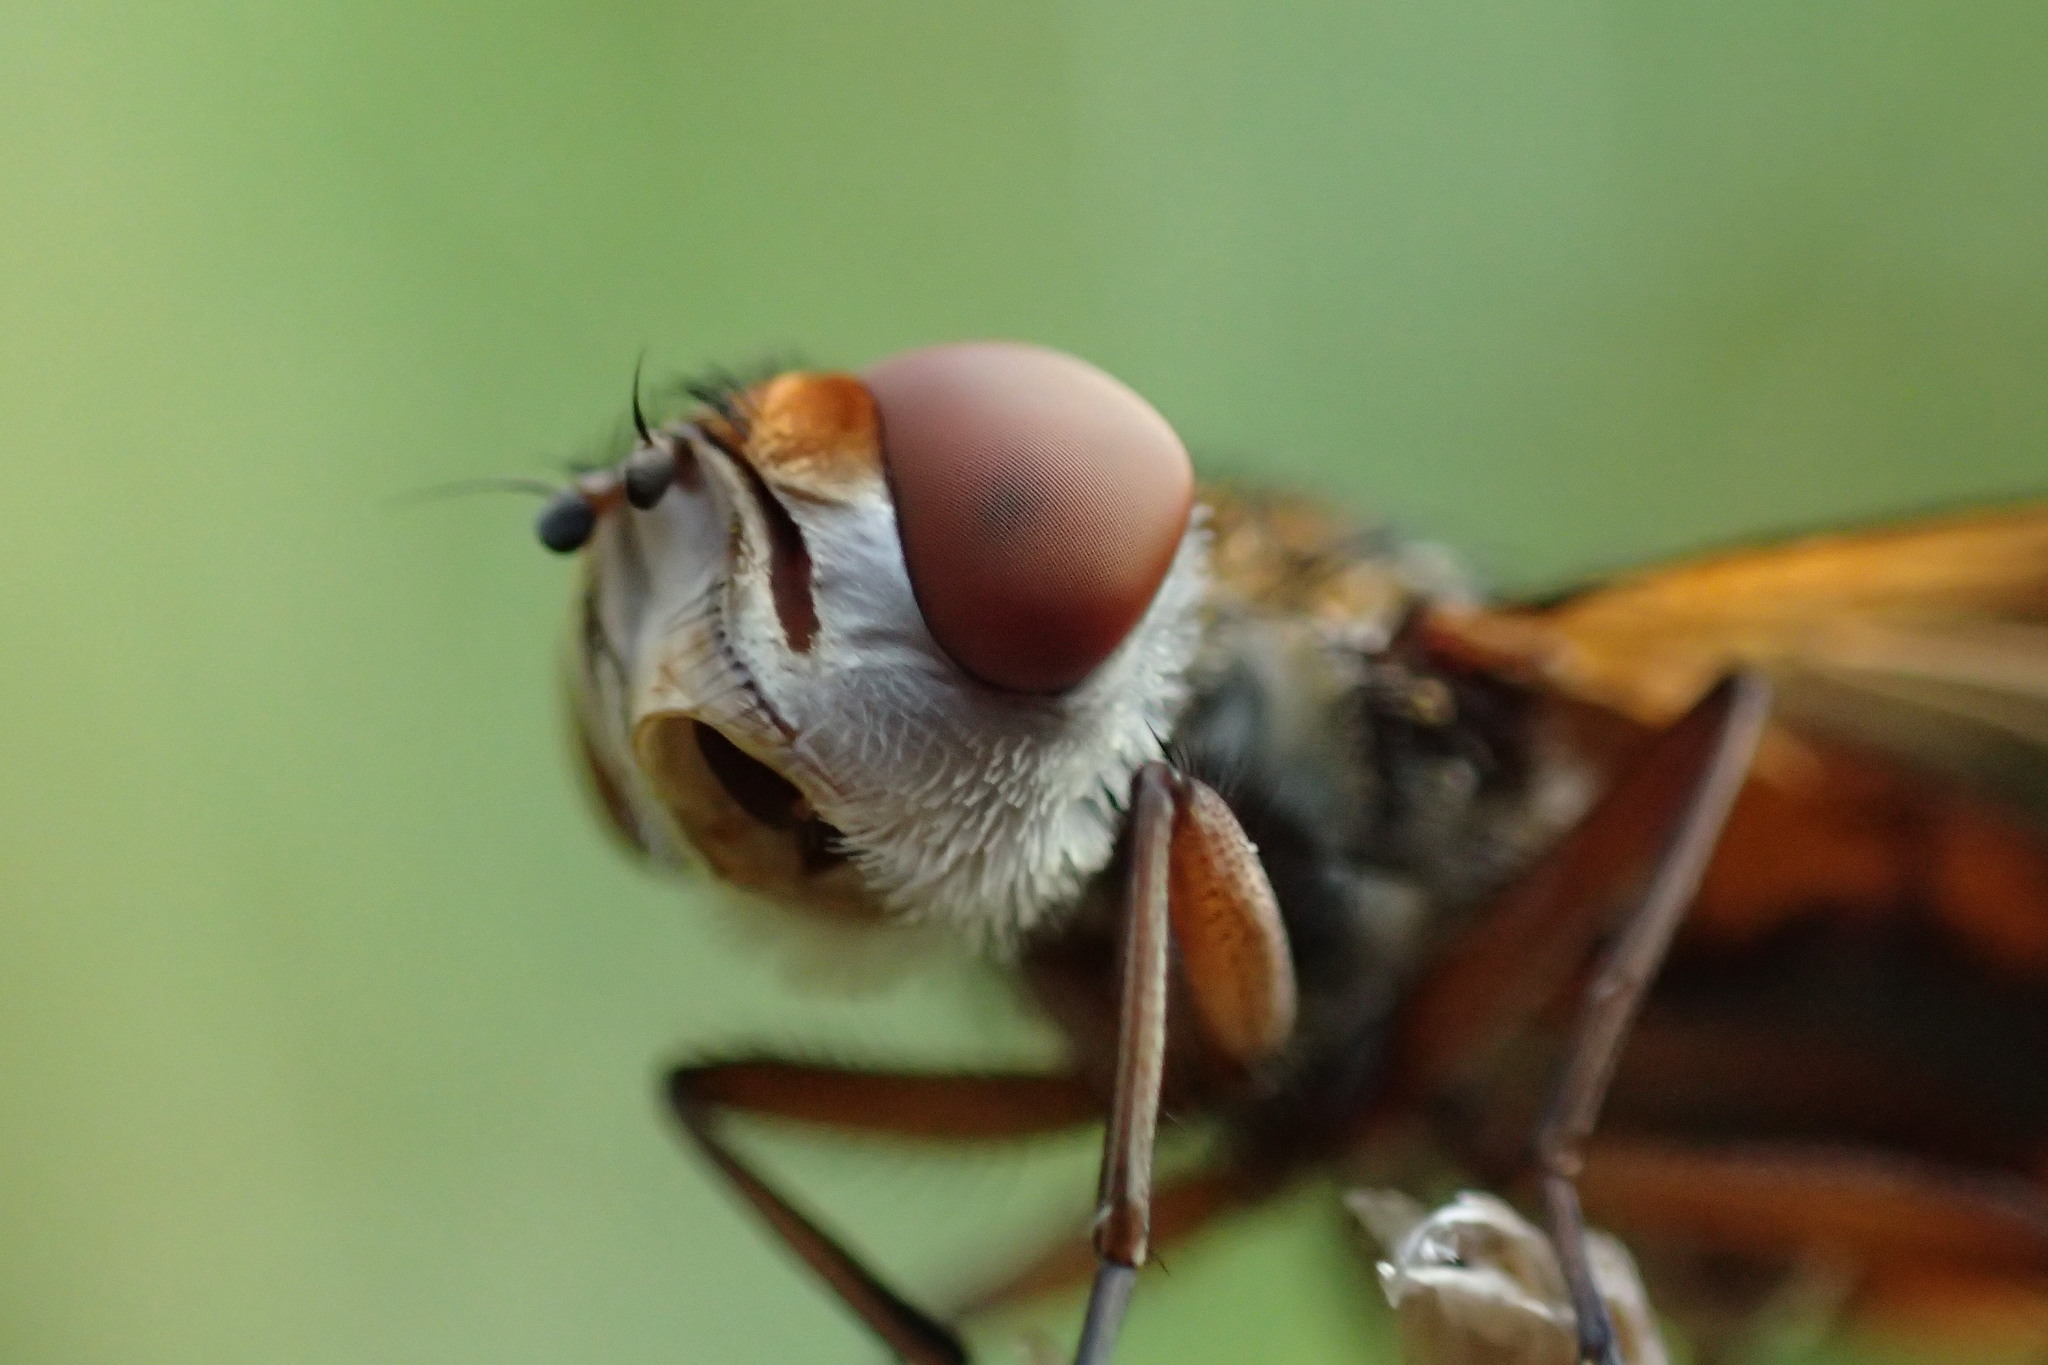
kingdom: Animalia
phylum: Arthropoda
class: Insecta
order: Diptera
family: Tachinidae
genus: Ectophasia
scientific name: Ectophasia crassipennis
